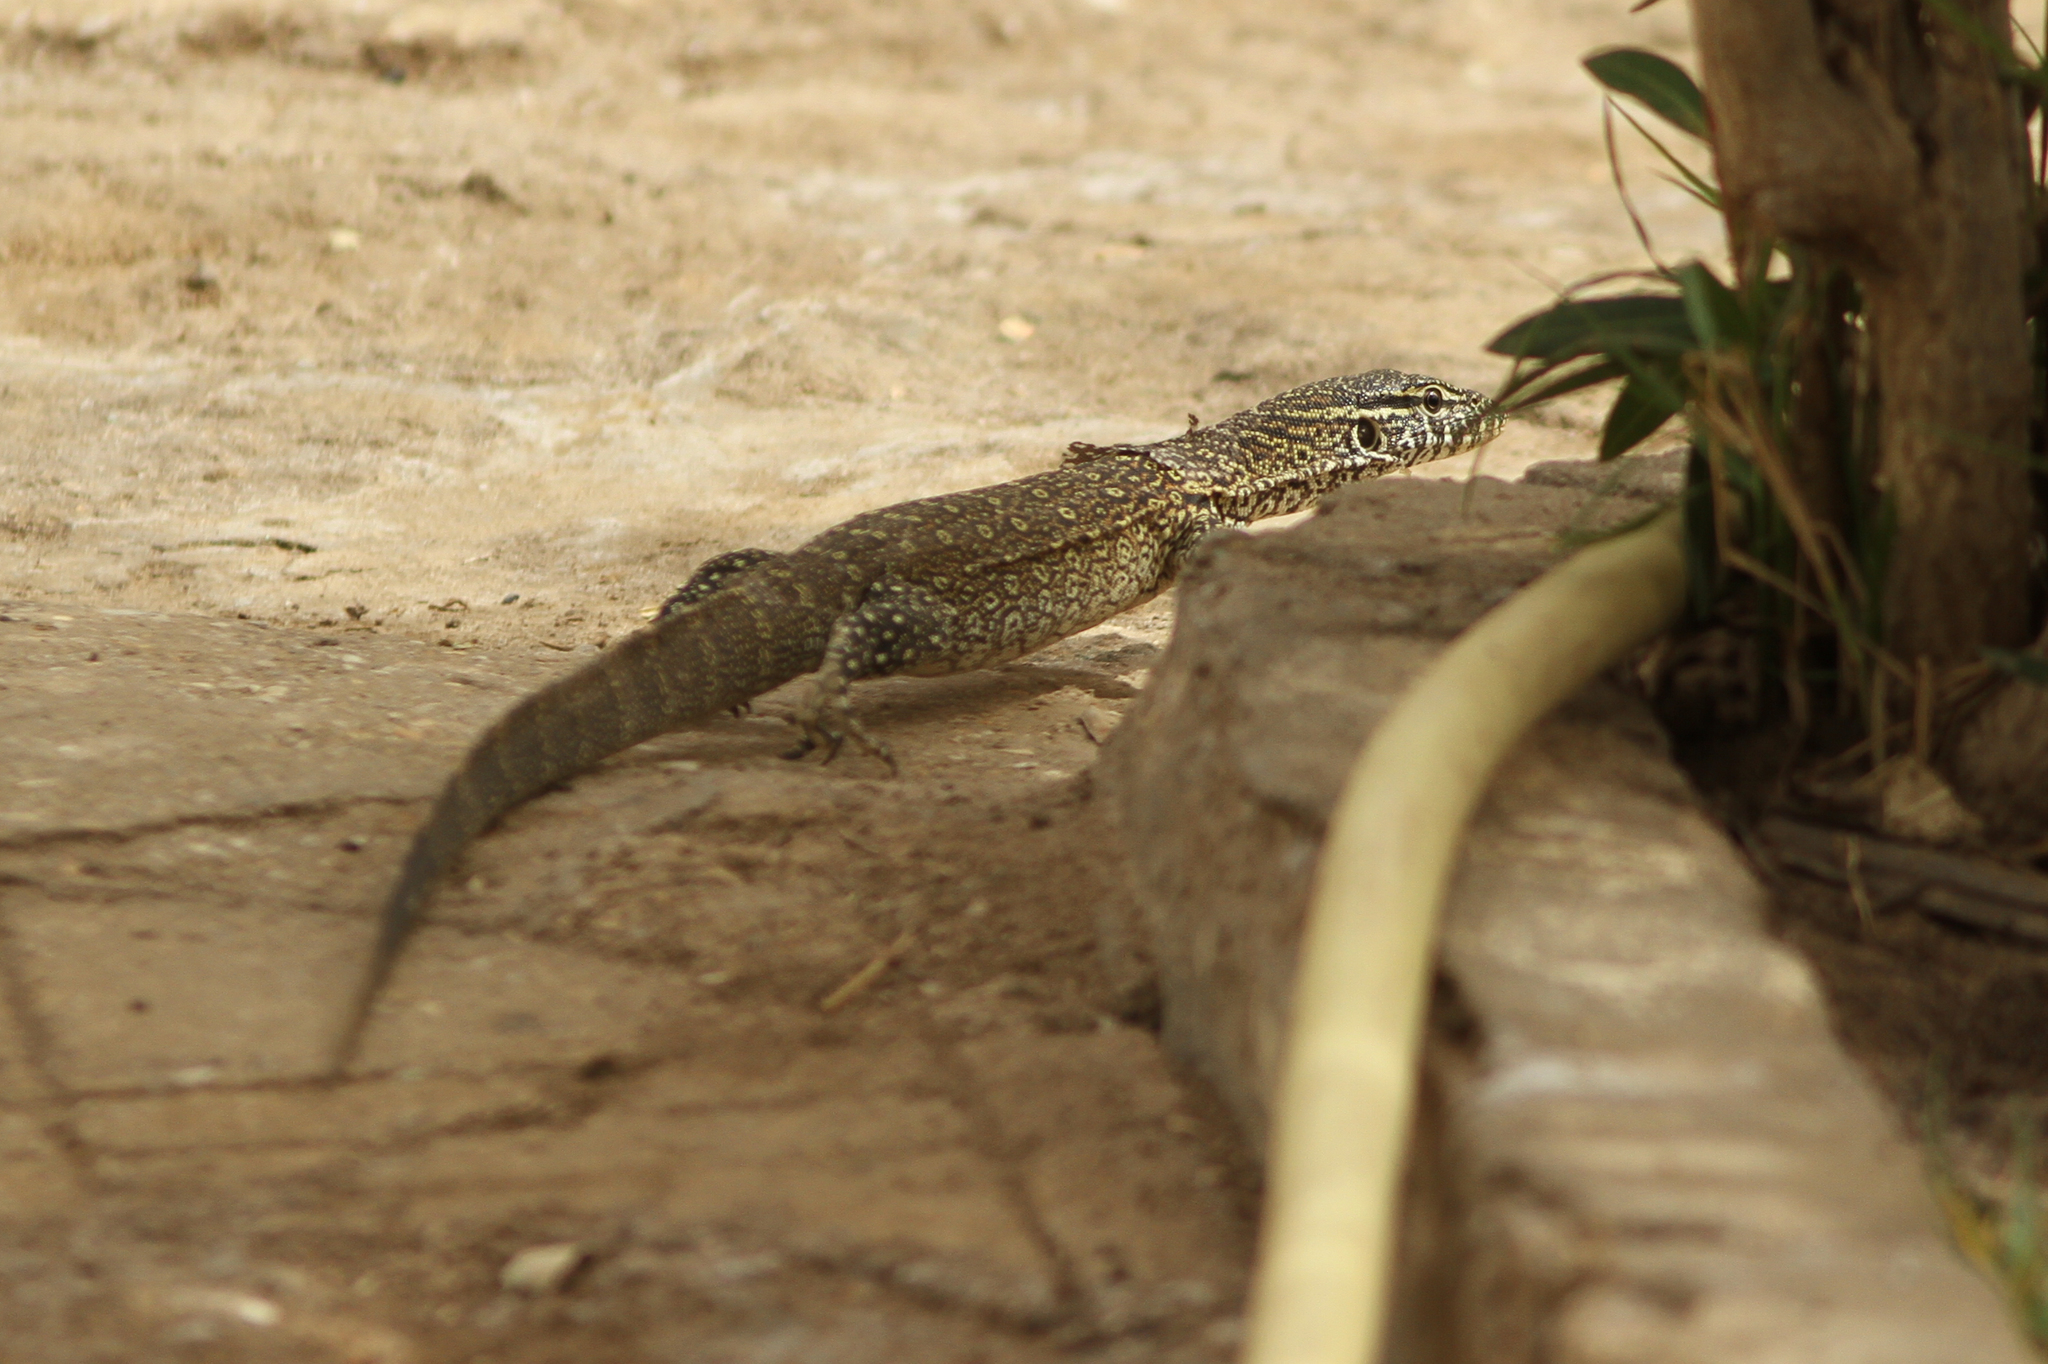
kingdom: Animalia
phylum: Chordata
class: Squamata
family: Varanidae
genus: Varanus
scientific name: Varanus niloticus
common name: Nile monitor
